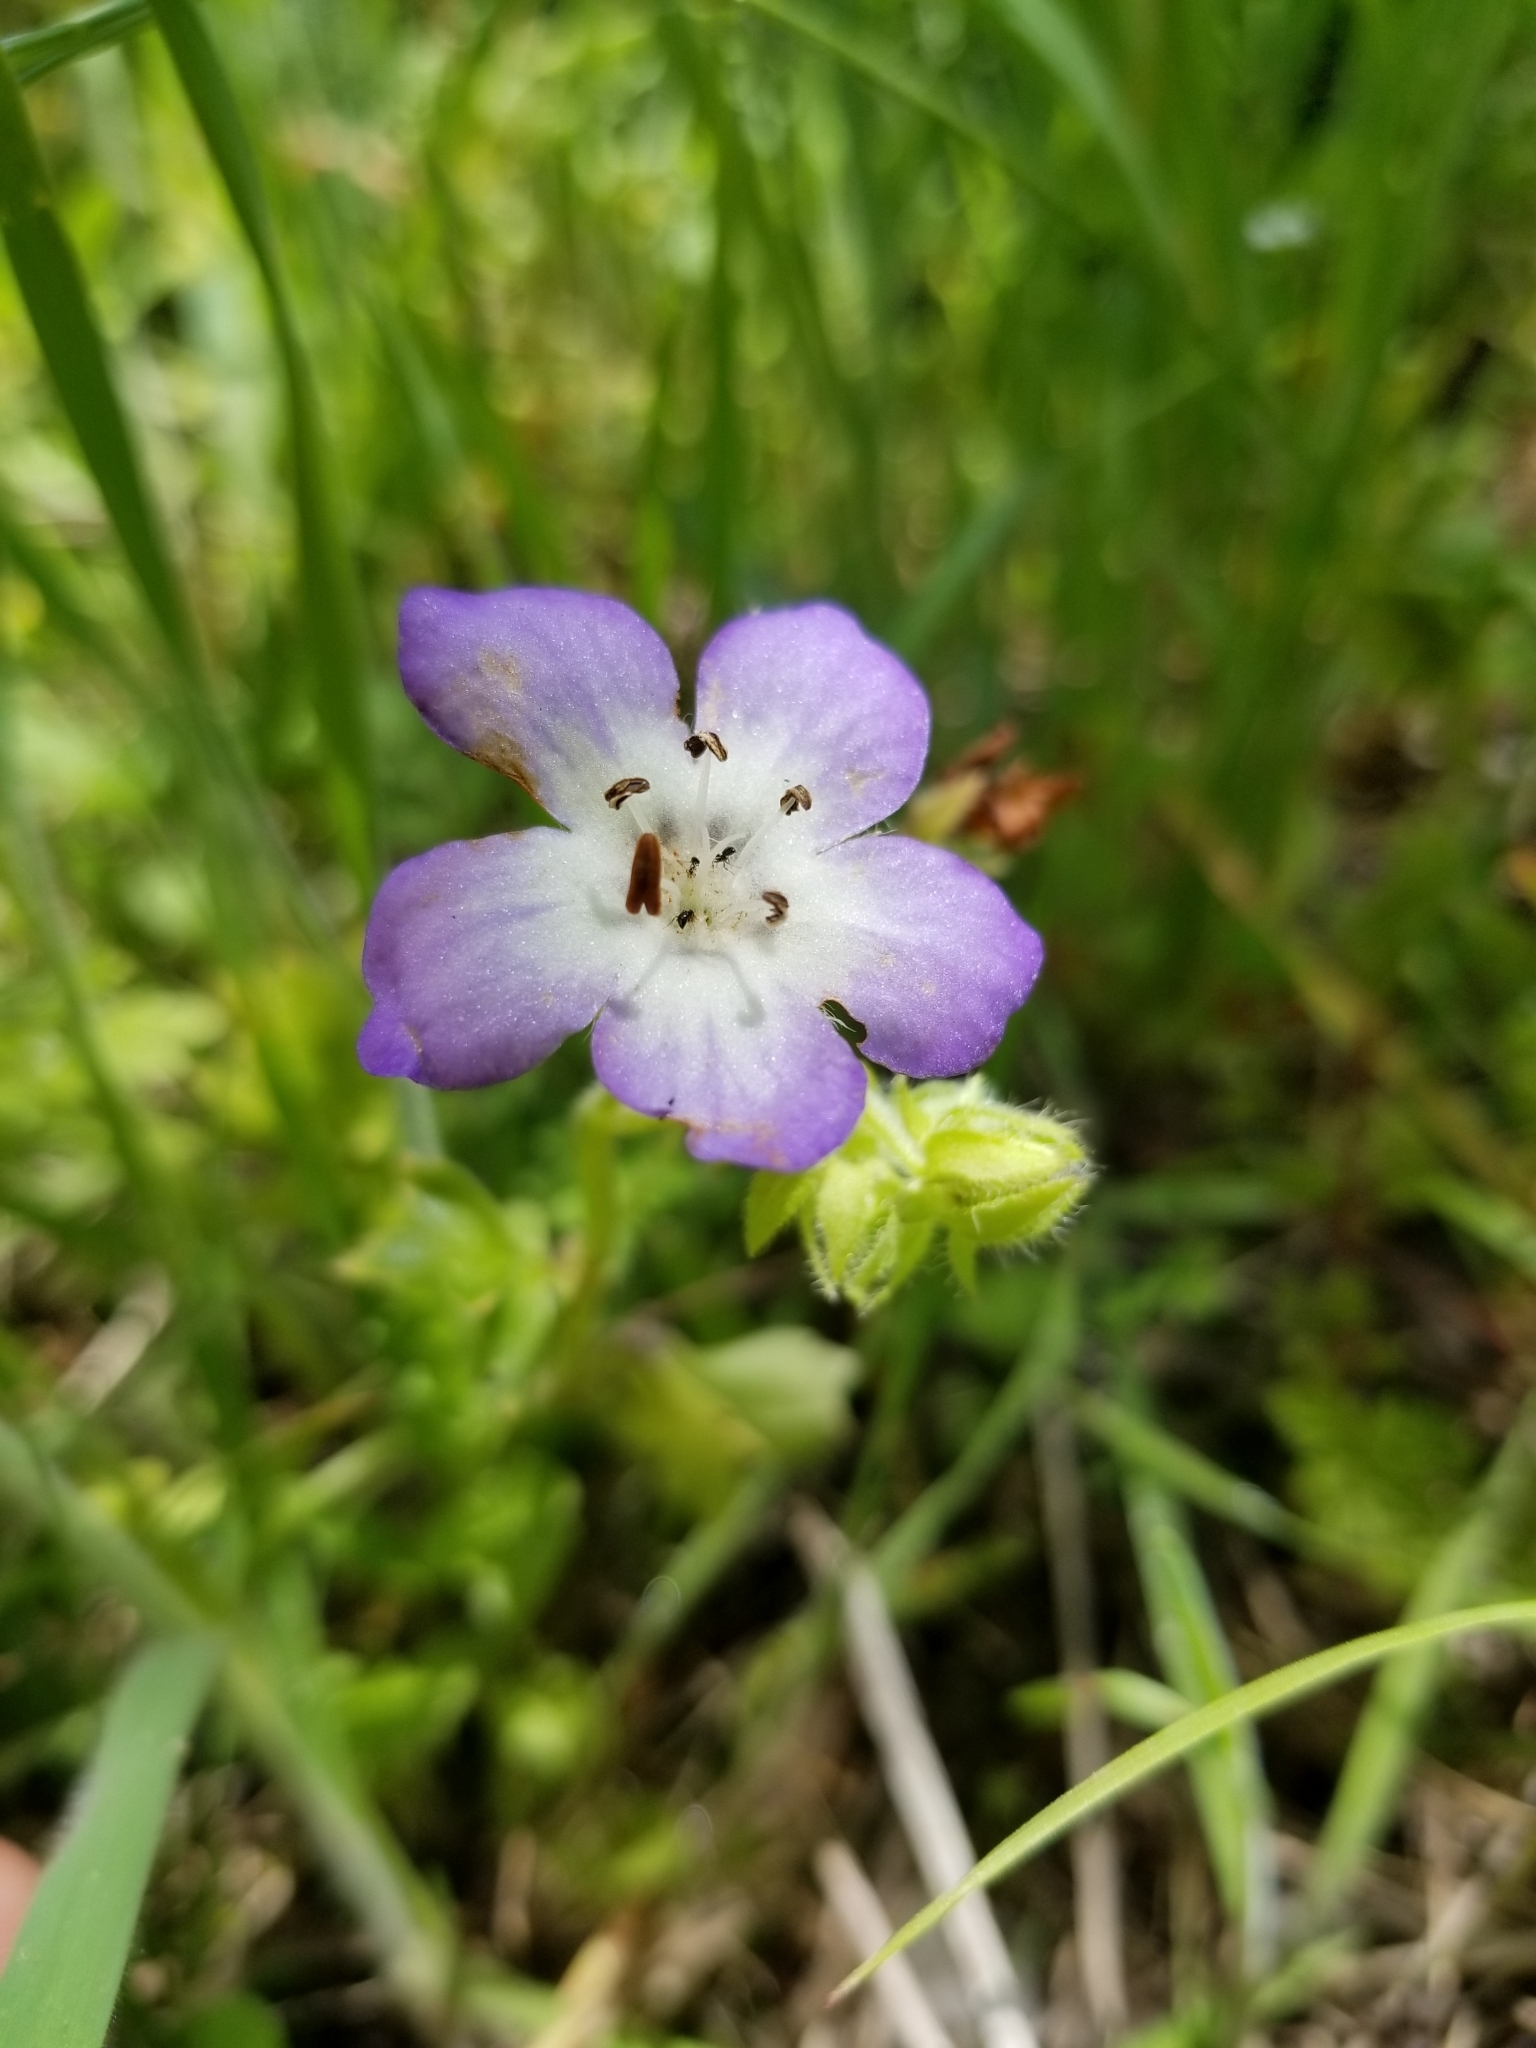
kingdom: Plantae
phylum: Tracheophyta
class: Magnoliopsida
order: Boraginales
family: Hydrophyllaceae
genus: Nemophila
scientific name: Nemophila phacelioides
